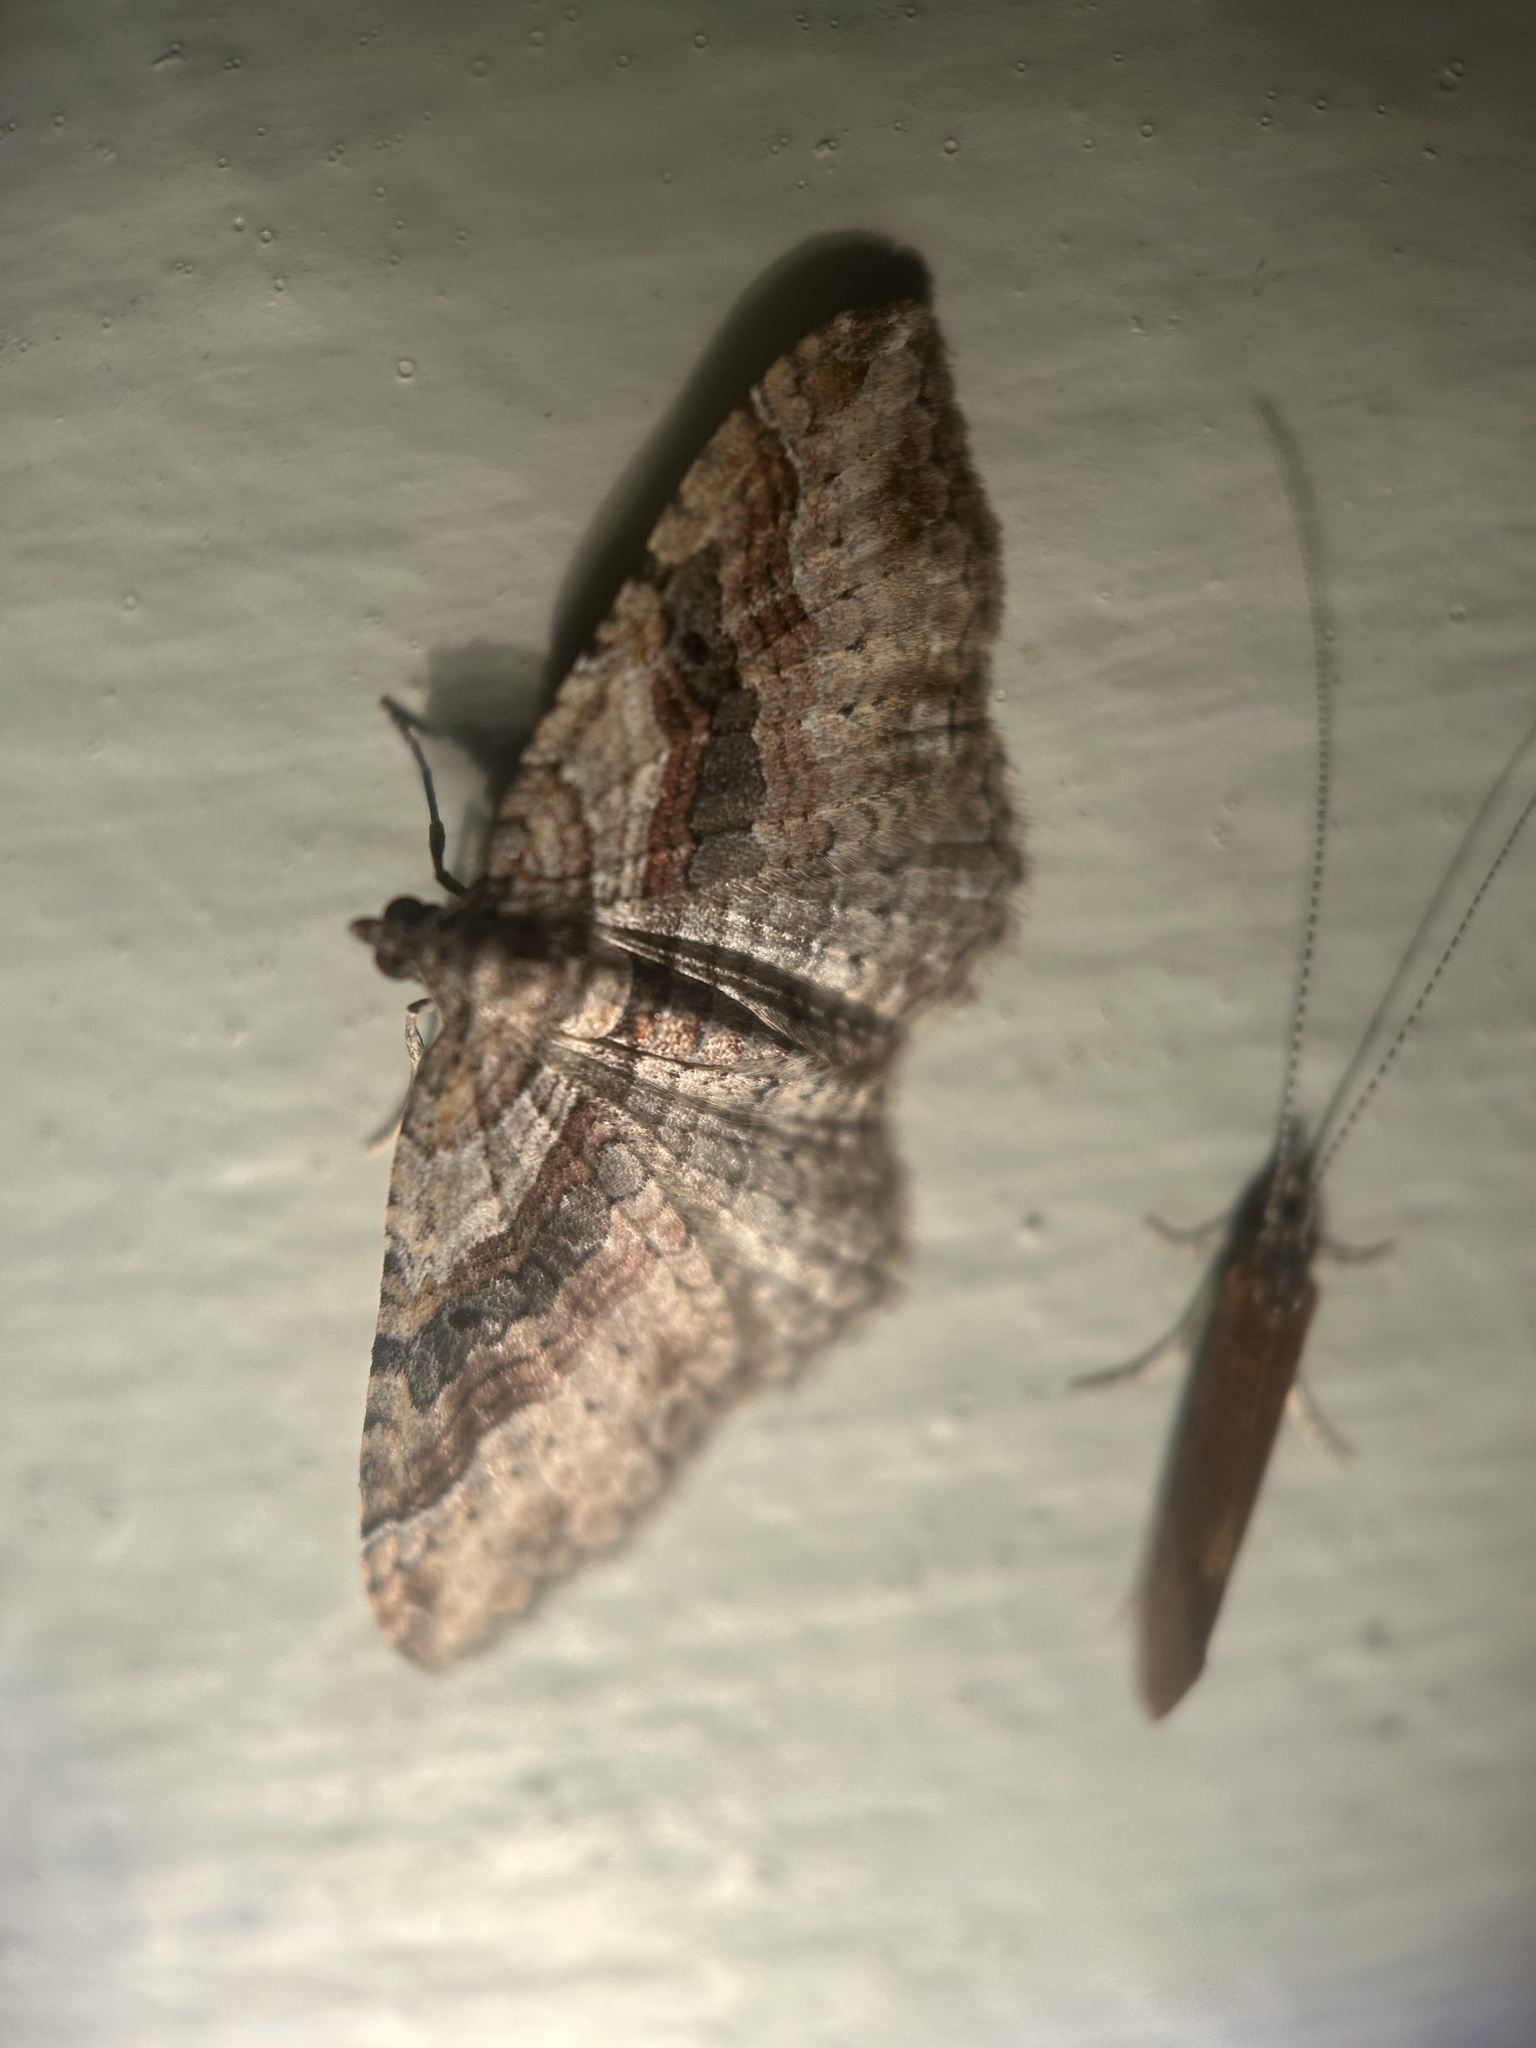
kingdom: Animalia
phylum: Arthropoda
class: Insecta
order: Lepidoptera
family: Geometridae
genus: Costaconvexa
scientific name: Costaconvexa centrostrigaria
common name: Bent-line carpet
